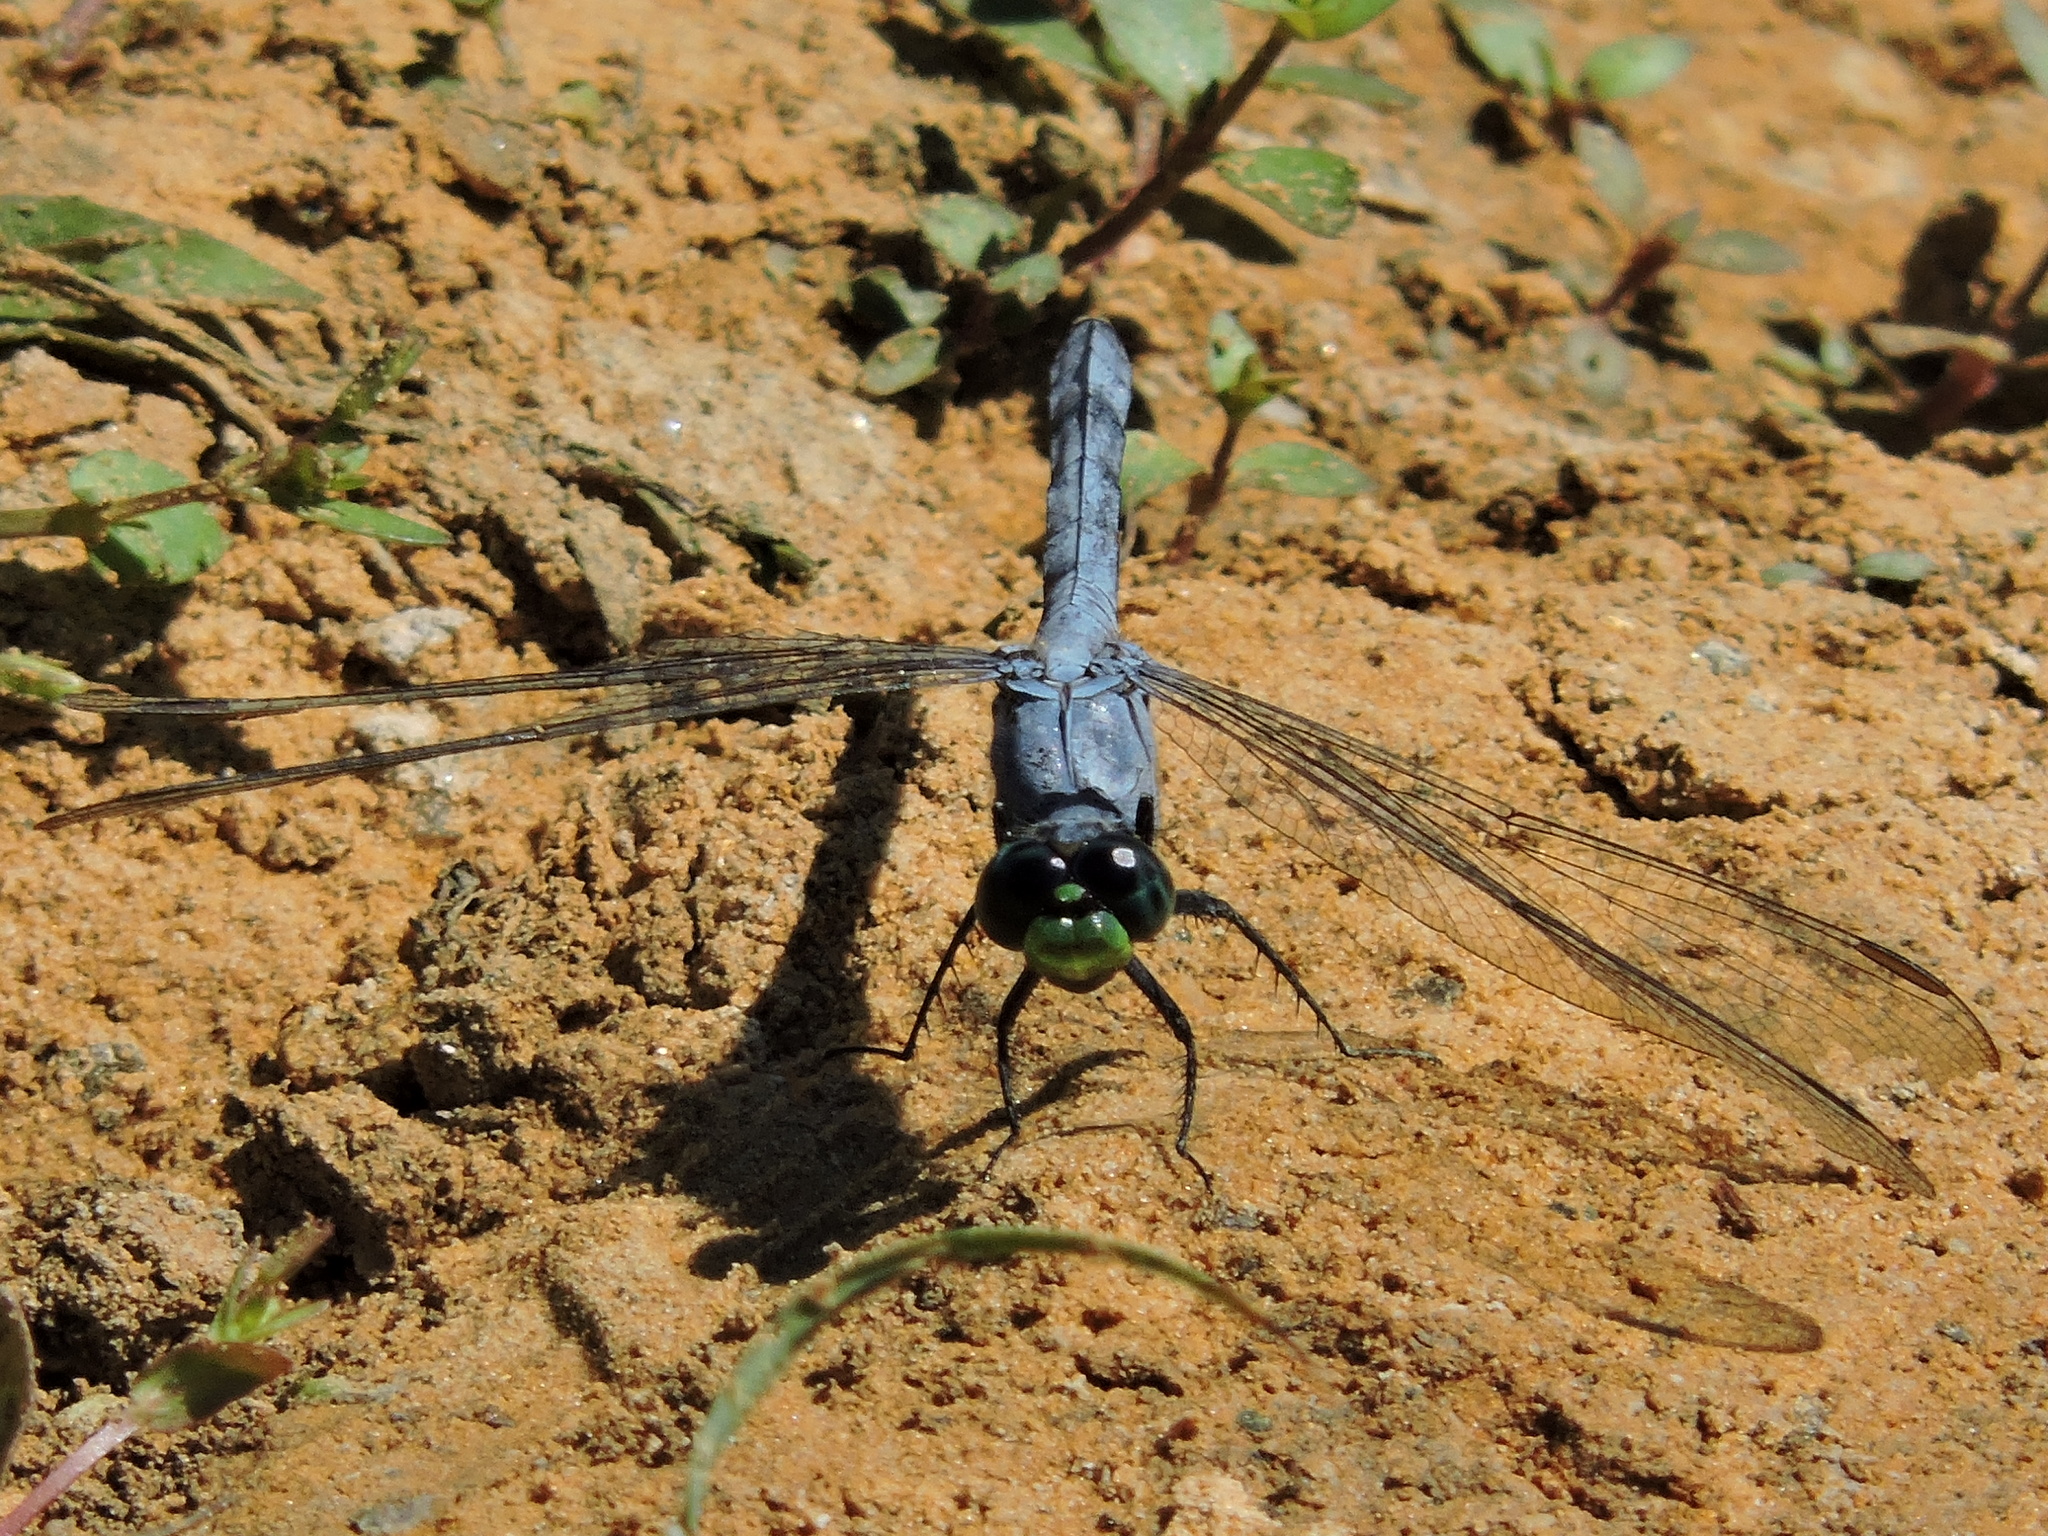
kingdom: Animalia
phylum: Arthropoda
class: Insecta
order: Odonata
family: Libellulidae
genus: Erythemis
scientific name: Erythemis simplicicollis
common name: Eastern pondhawk
